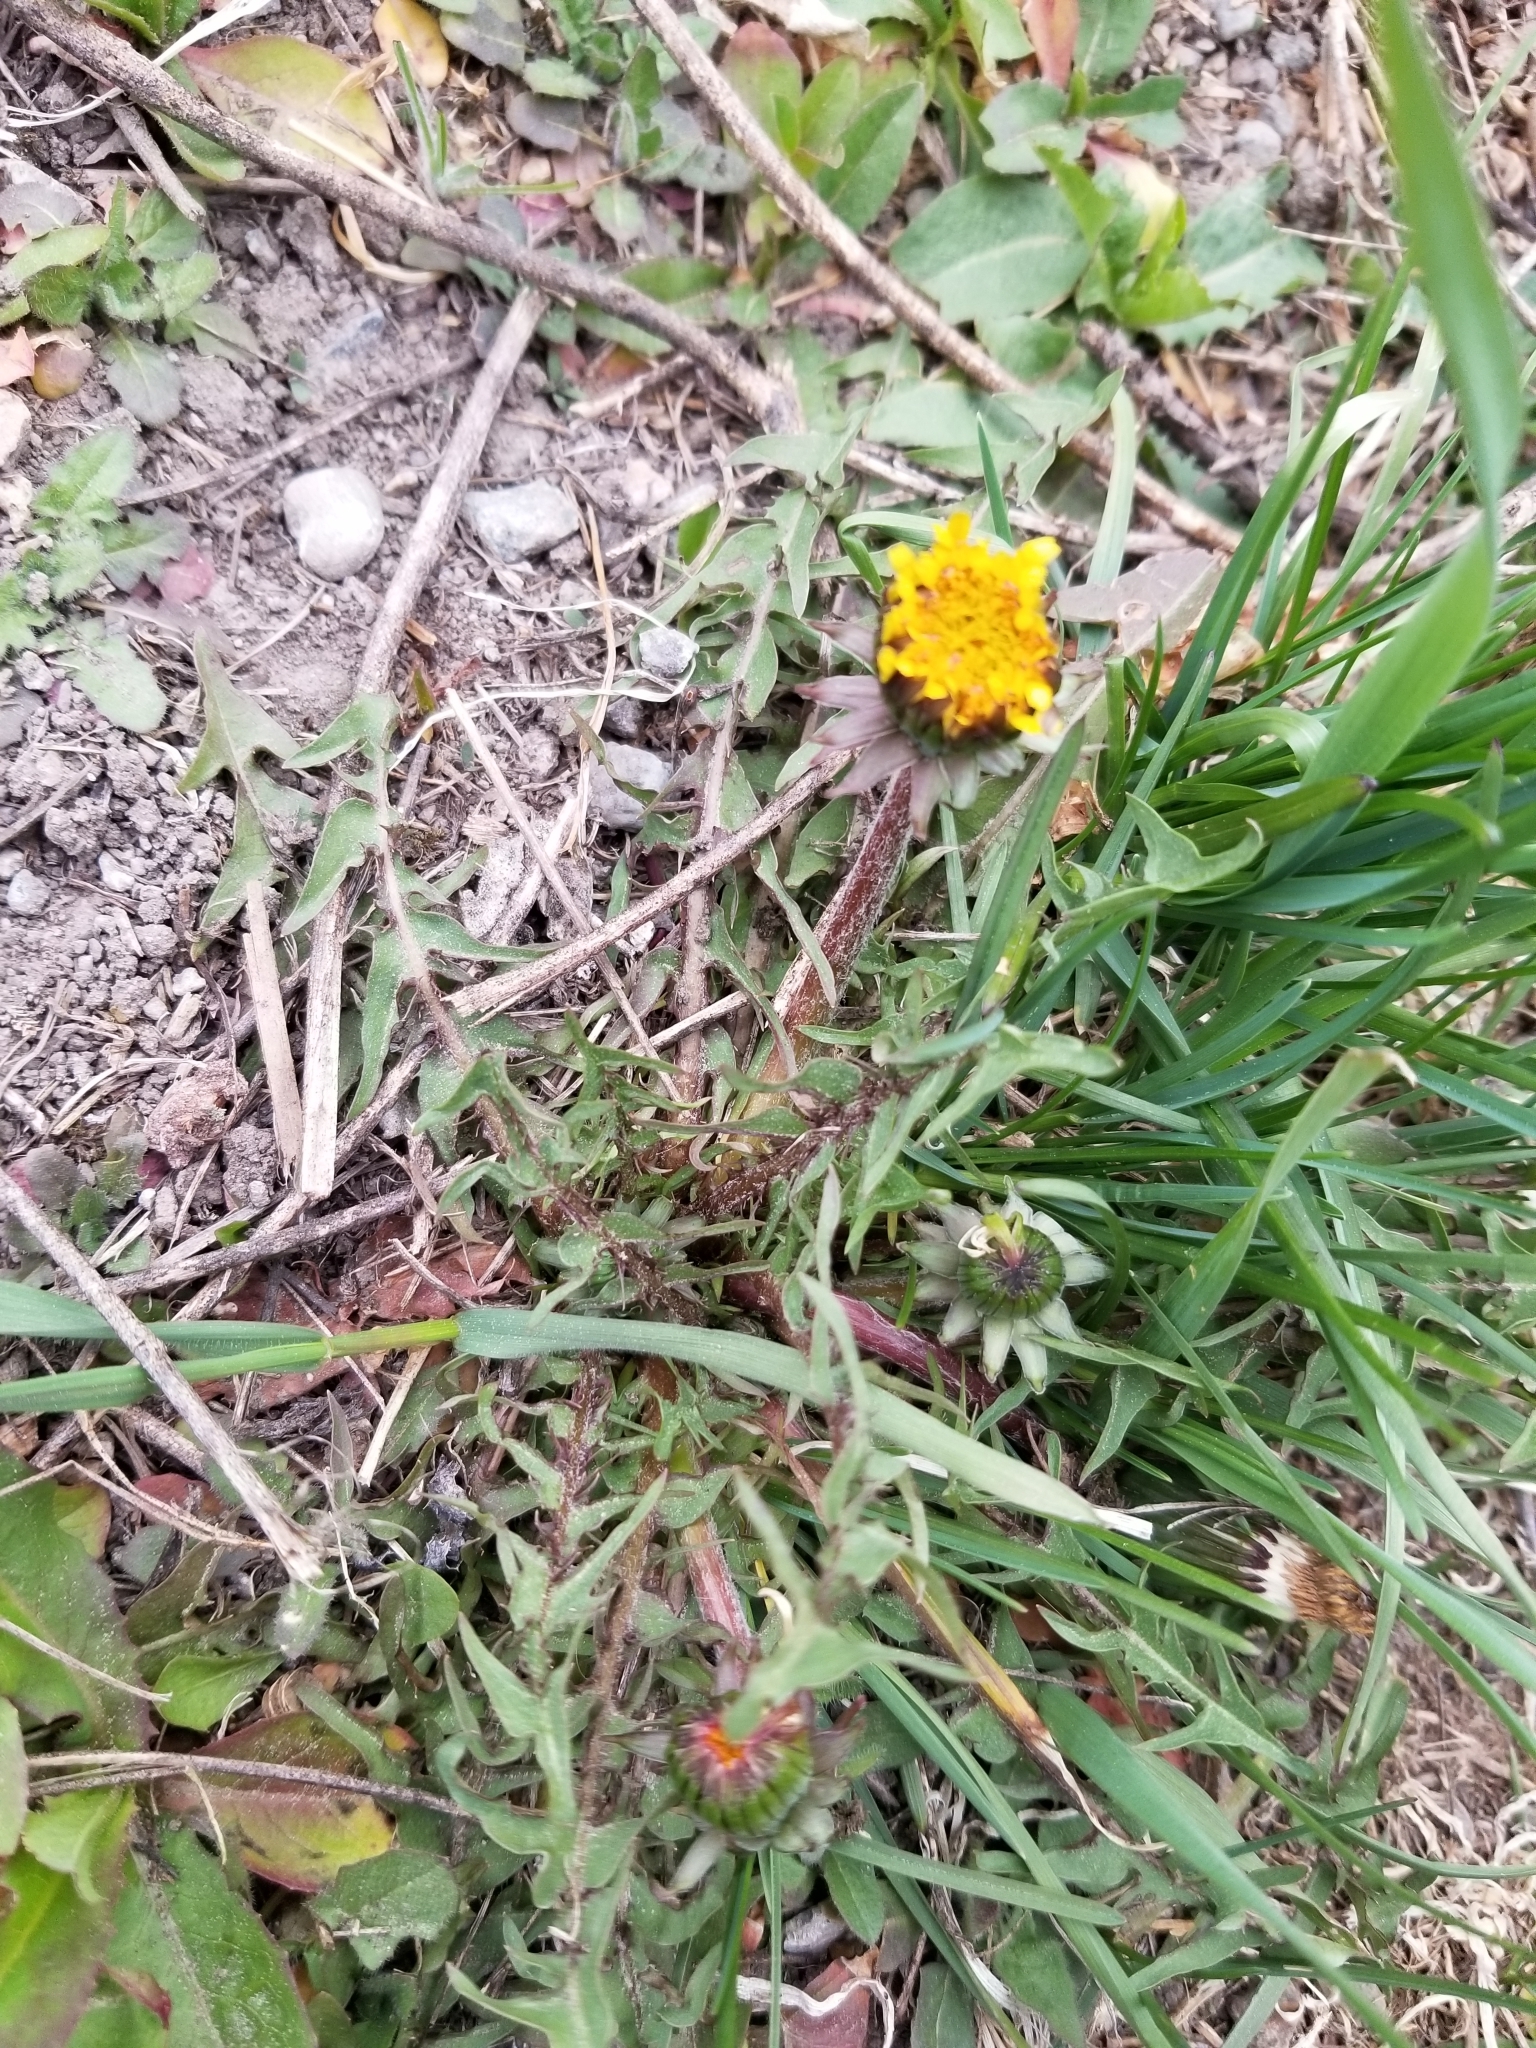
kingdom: Plantae
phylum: Tracheophyta
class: Magnoliopsida
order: Asterales
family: Asteraceae
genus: Taraxacum
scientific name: Taraxacum officinale
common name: Common dandelion
